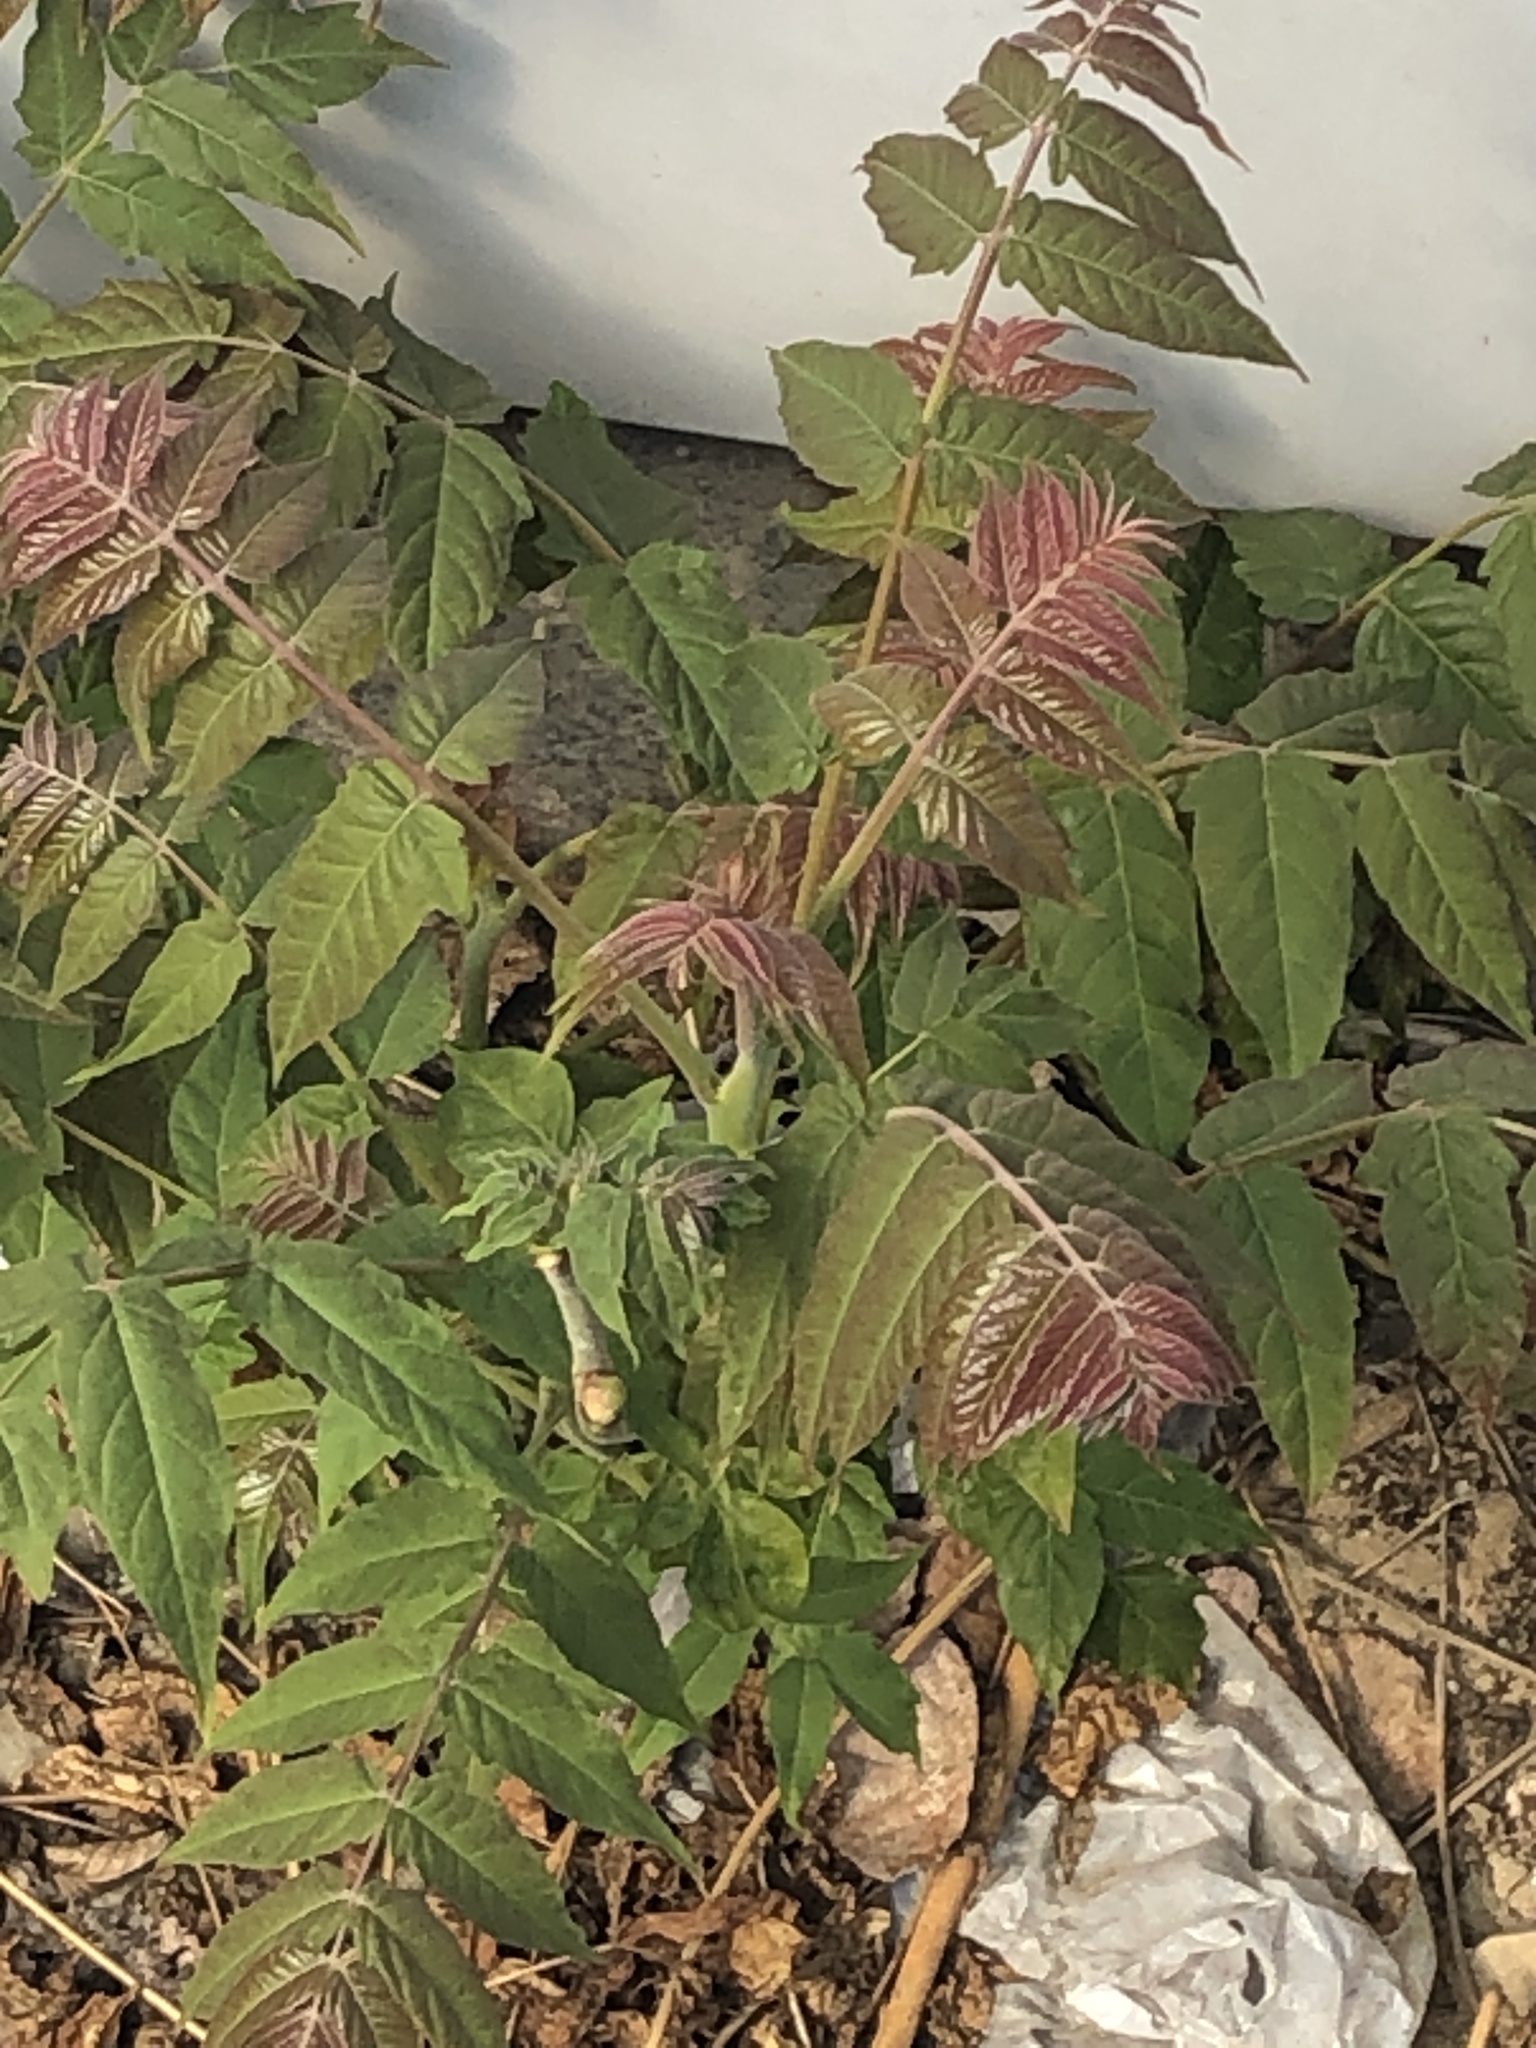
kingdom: Plantae
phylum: Tracheophyta
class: Magnoliopsida
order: Sapindales
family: Simaroubaceae
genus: Ailanthus
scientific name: Ailanthus altissima
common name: Tree-of-heaven
